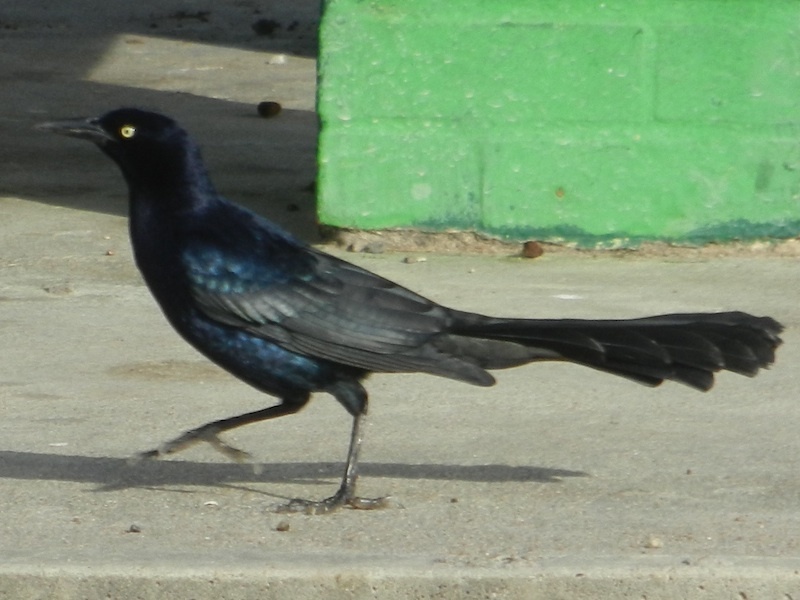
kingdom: Animalia
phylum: Chordata
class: Aves
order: Passeriformes
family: Icteridae
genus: Quiscalus
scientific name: Quiscalus mexicanus
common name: Great-tailed grackle
